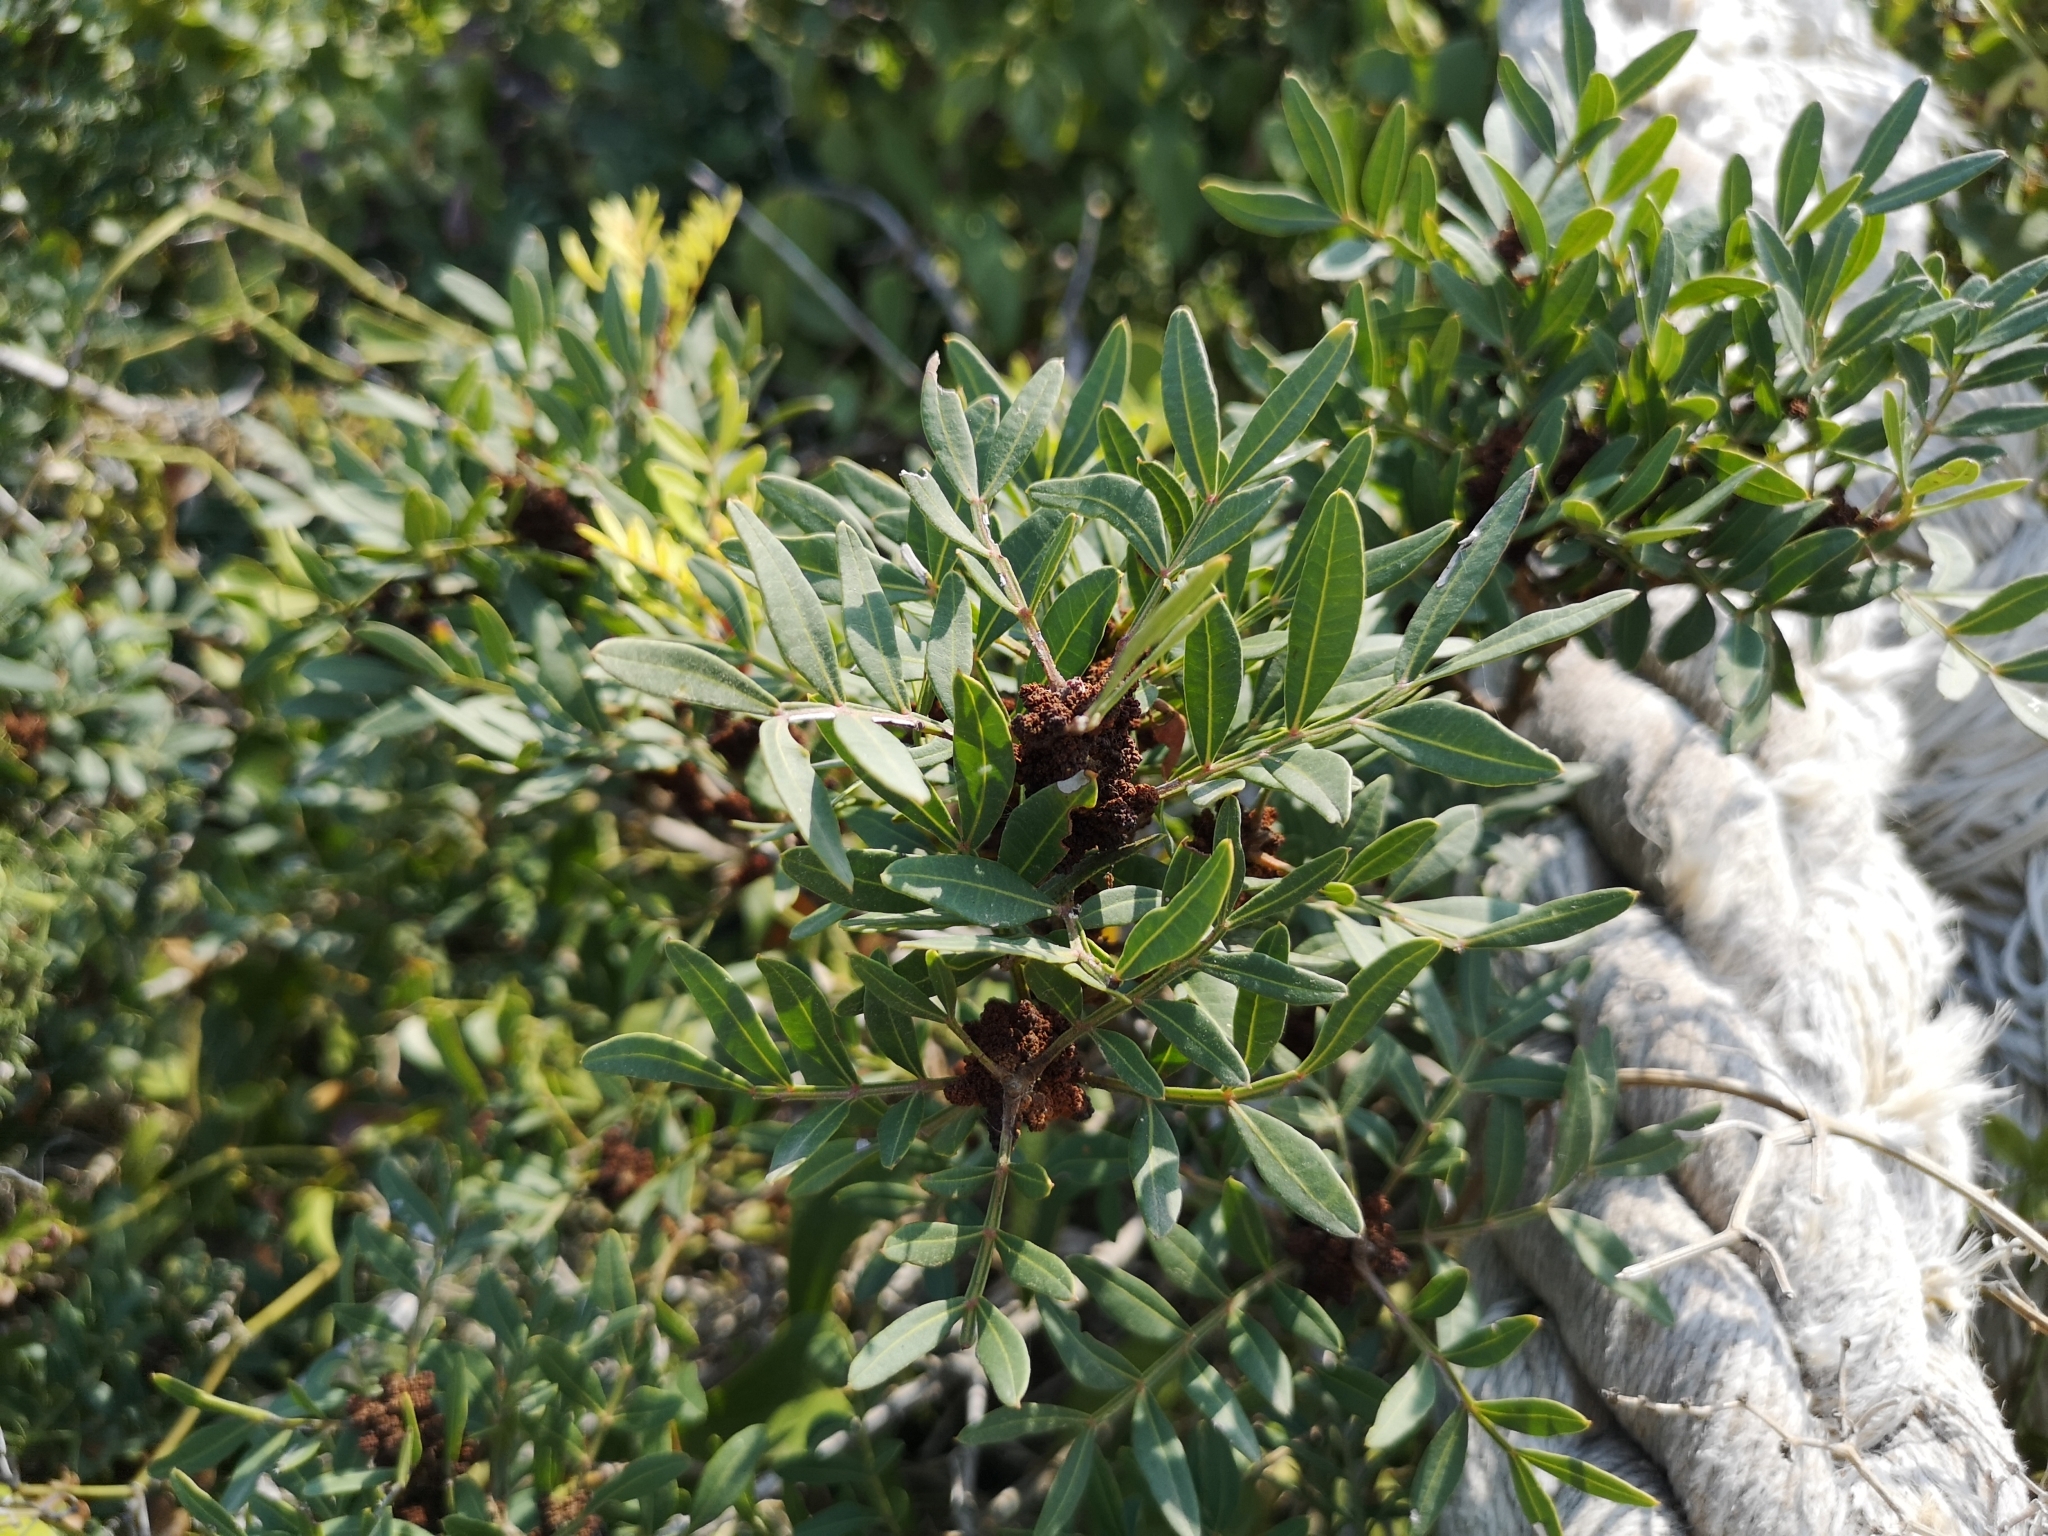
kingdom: Plantae
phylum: Tracheophyta
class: Magnoliopsida
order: Sapindales
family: Anacardiaceae
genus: Pistacia
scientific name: Pistacia lentiscus
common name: Lentisk
